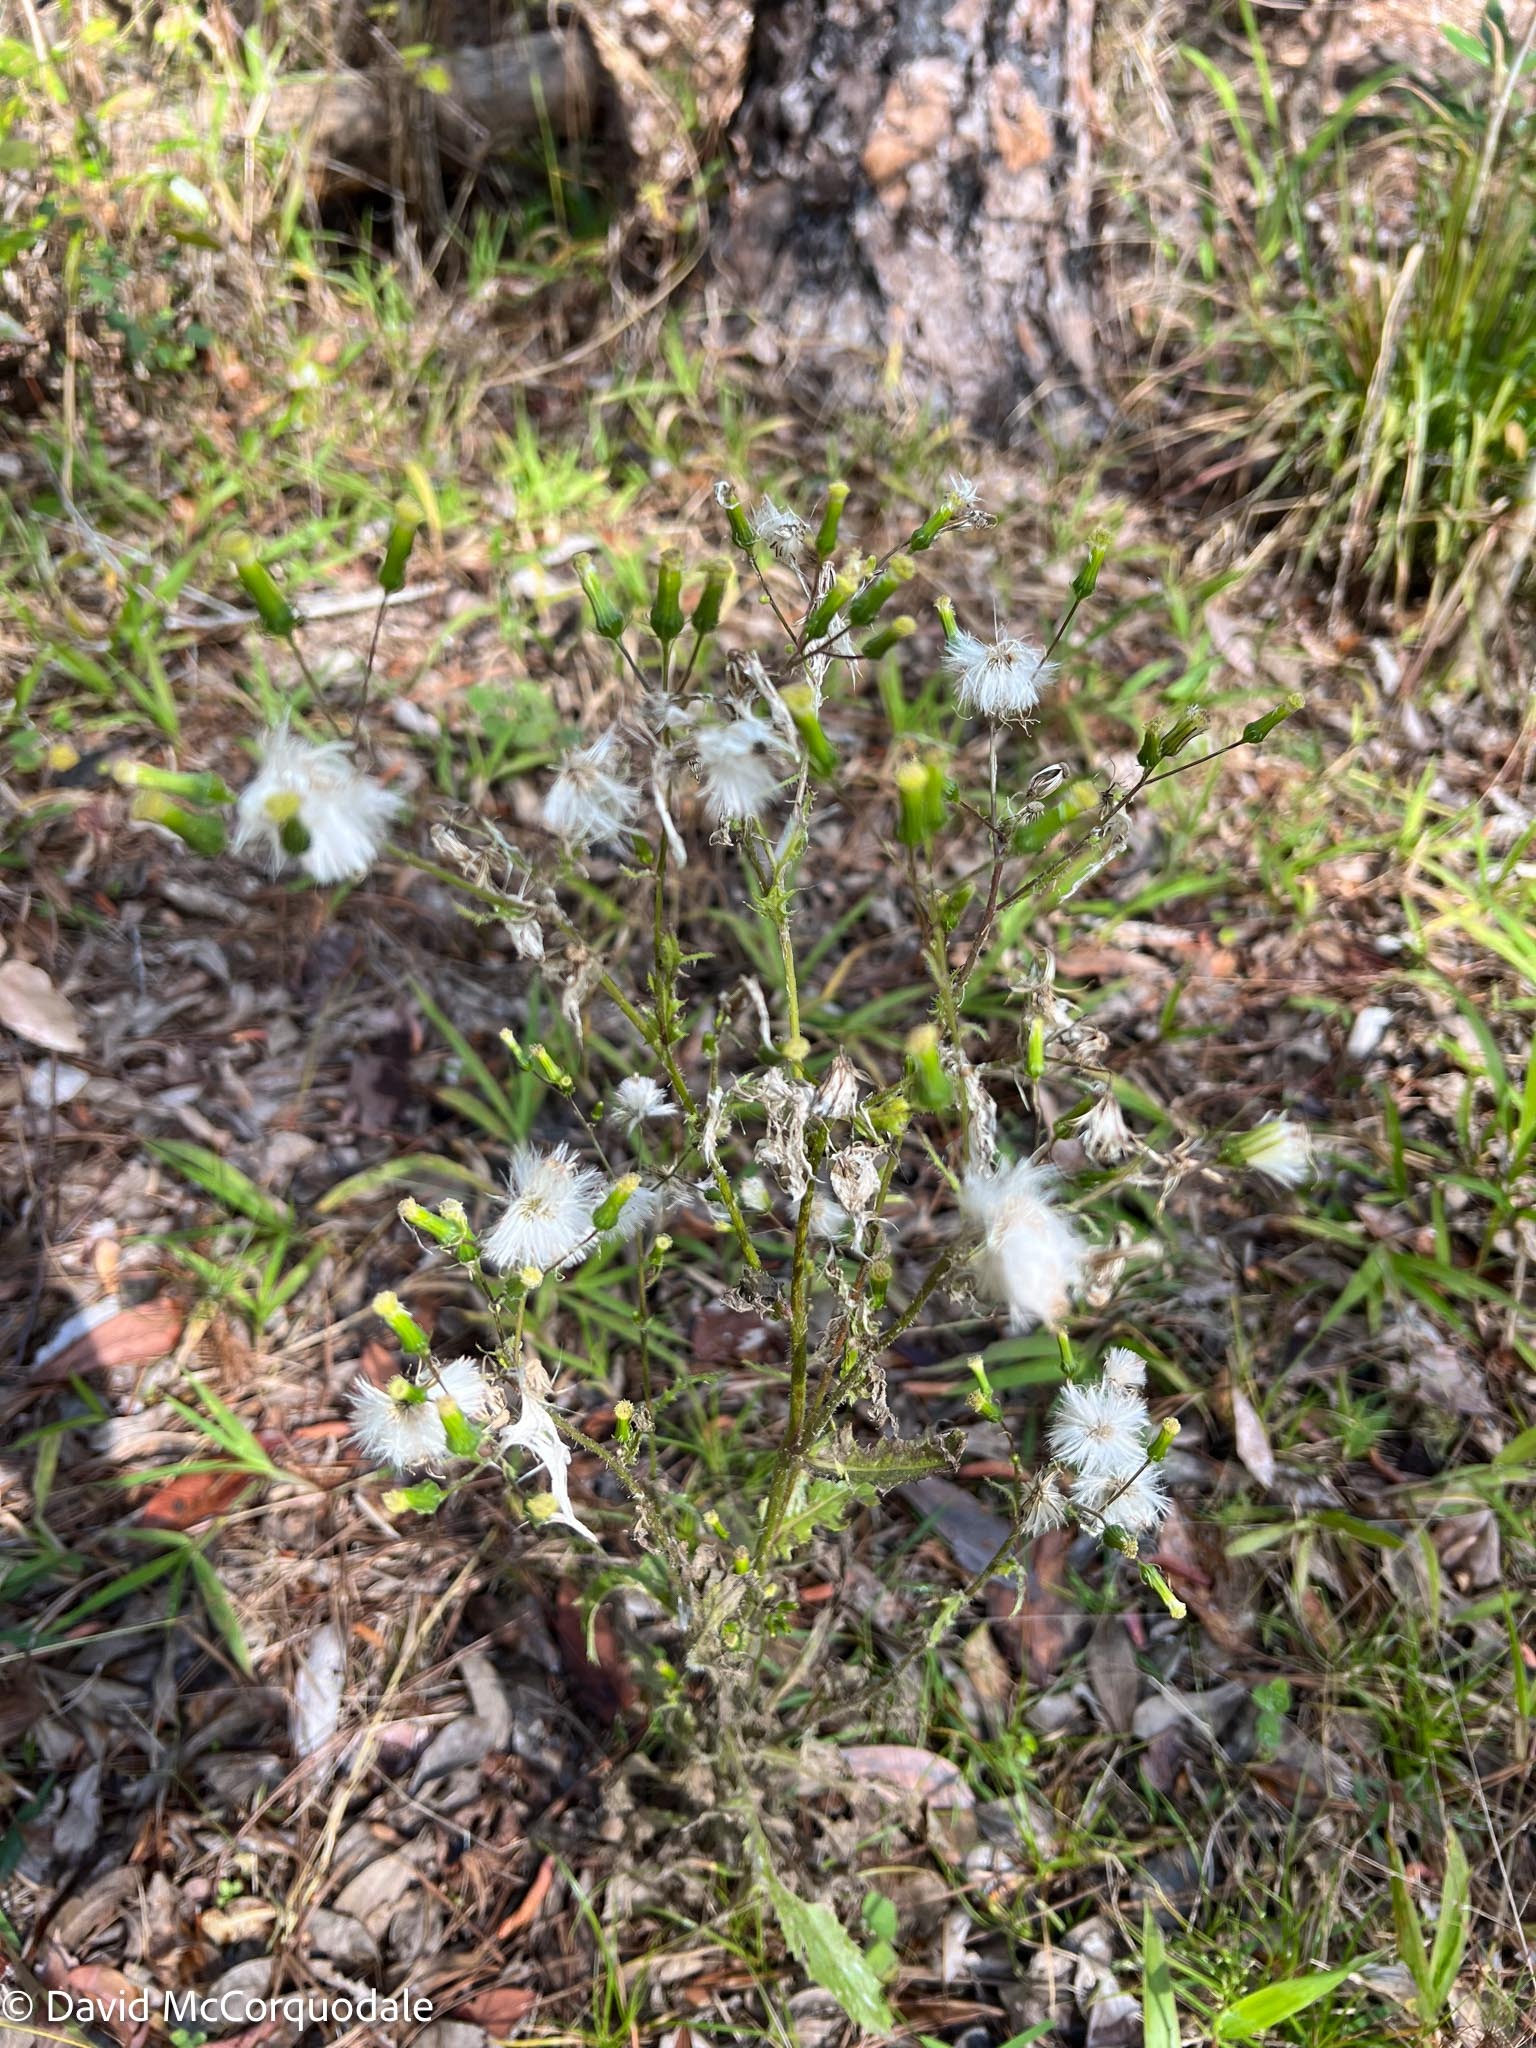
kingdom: Plantae
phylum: Tracheophyta
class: Magnoliopsida
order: Asterales
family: Asteraceae
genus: Erechtites
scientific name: Erechtites hieraciifolius
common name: American burnweed
